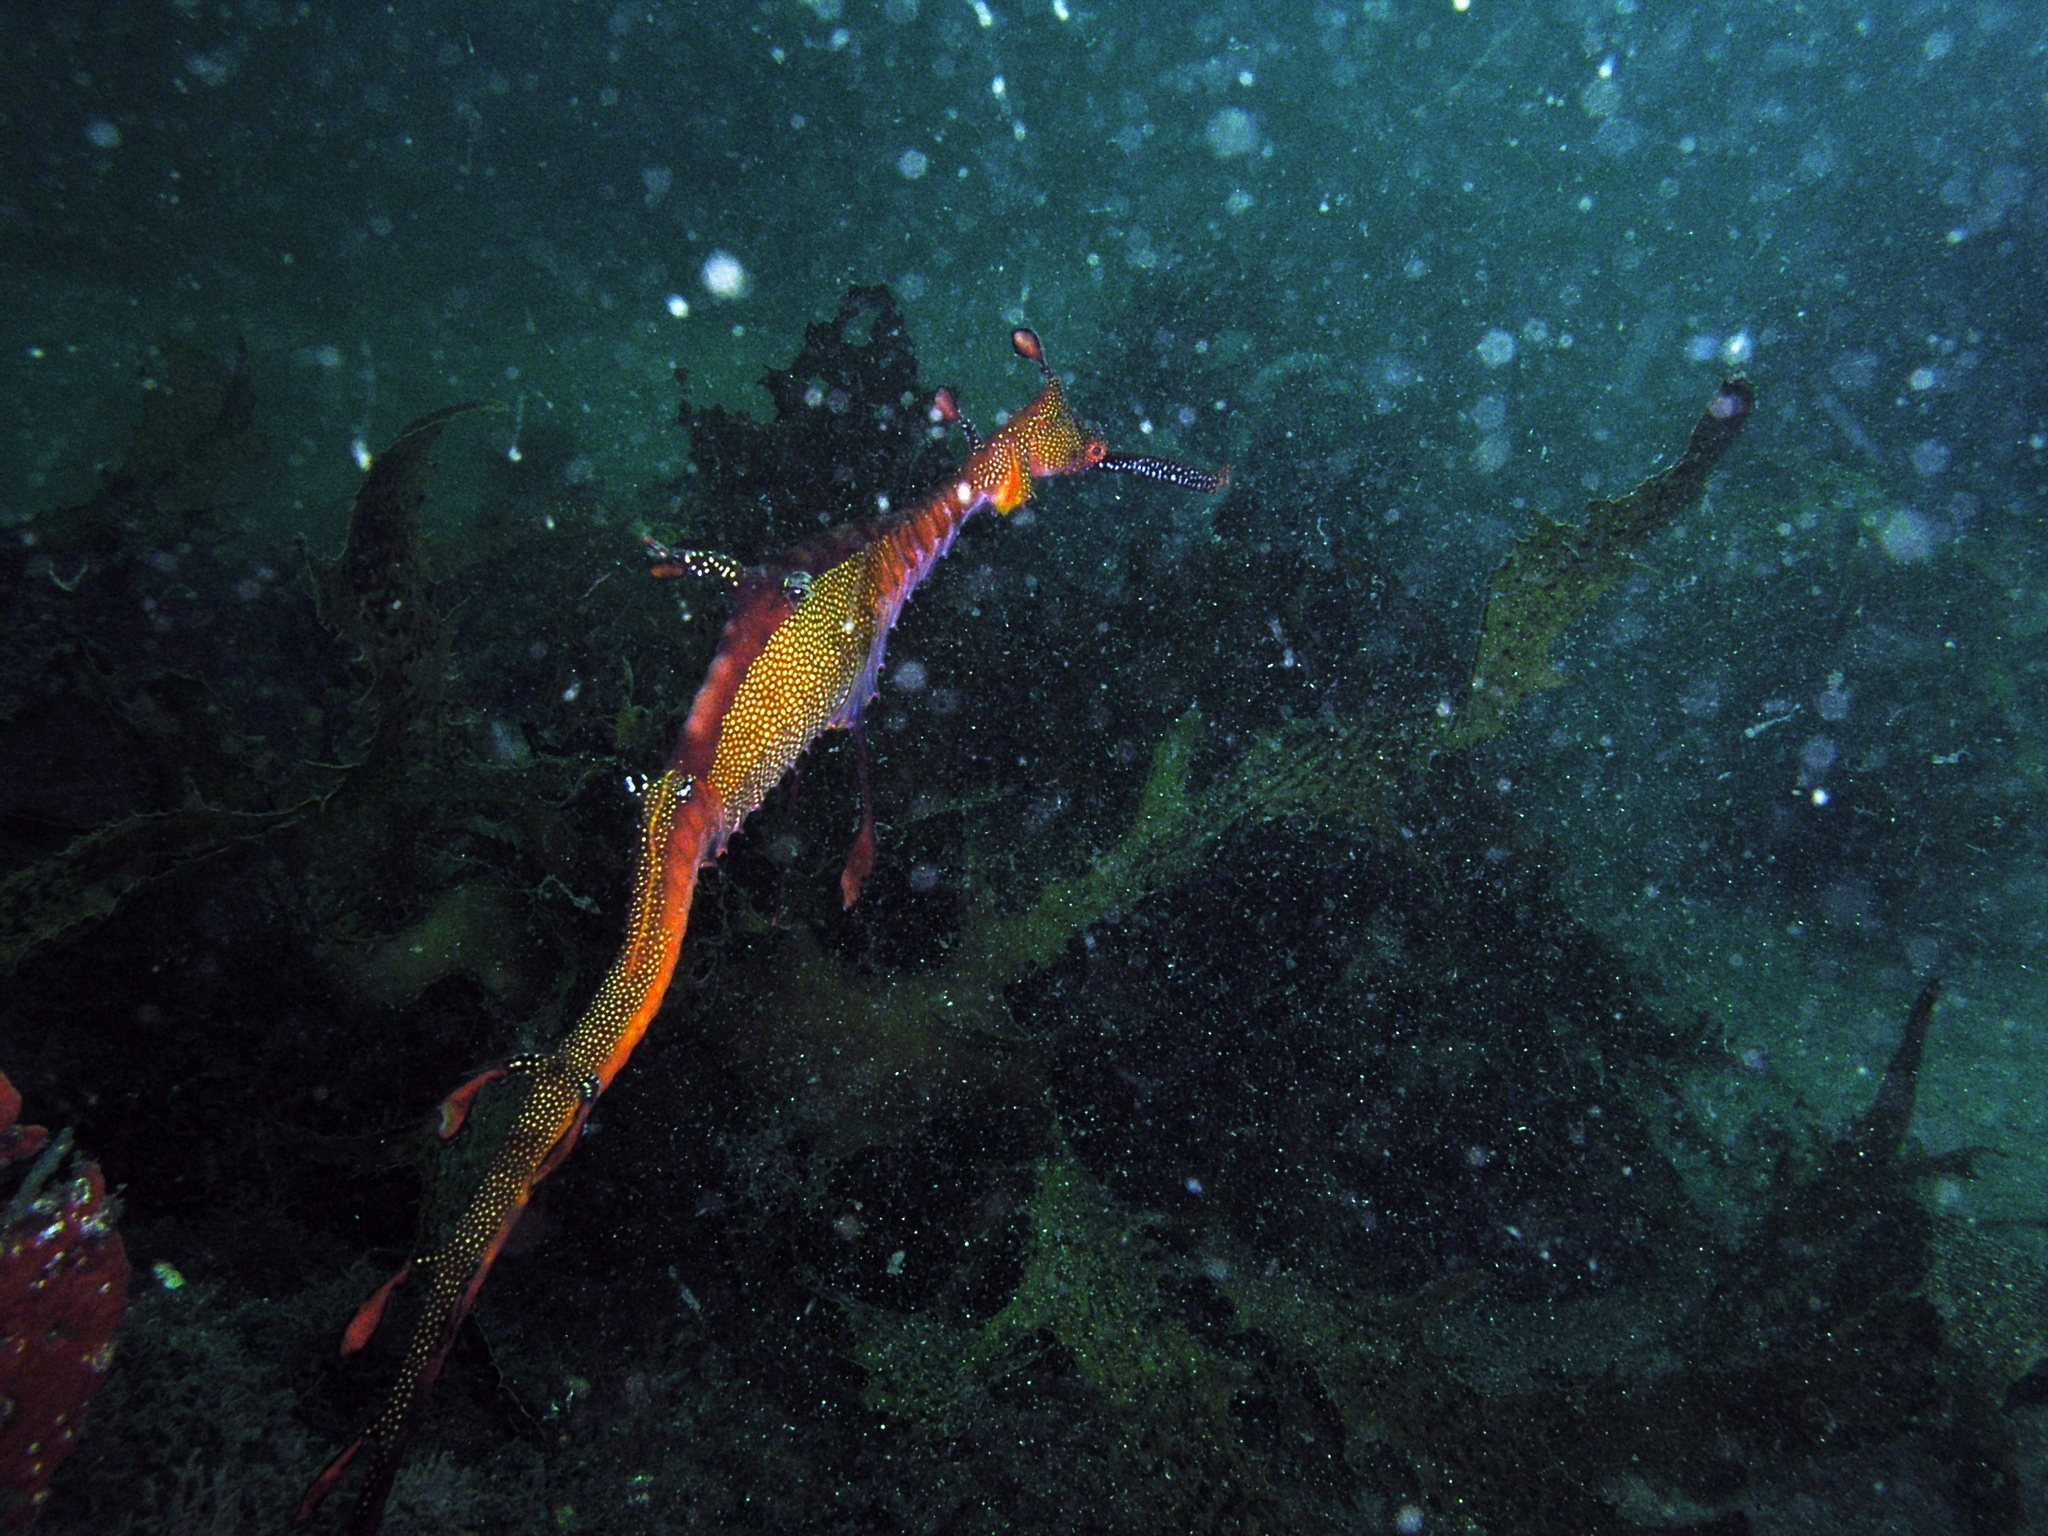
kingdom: Animalia
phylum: Chordata
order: Syngnathiformes
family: Syngnathidae
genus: Phyllopteryx
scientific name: Phyllopteryx taeniolatus
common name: Common seadragon
